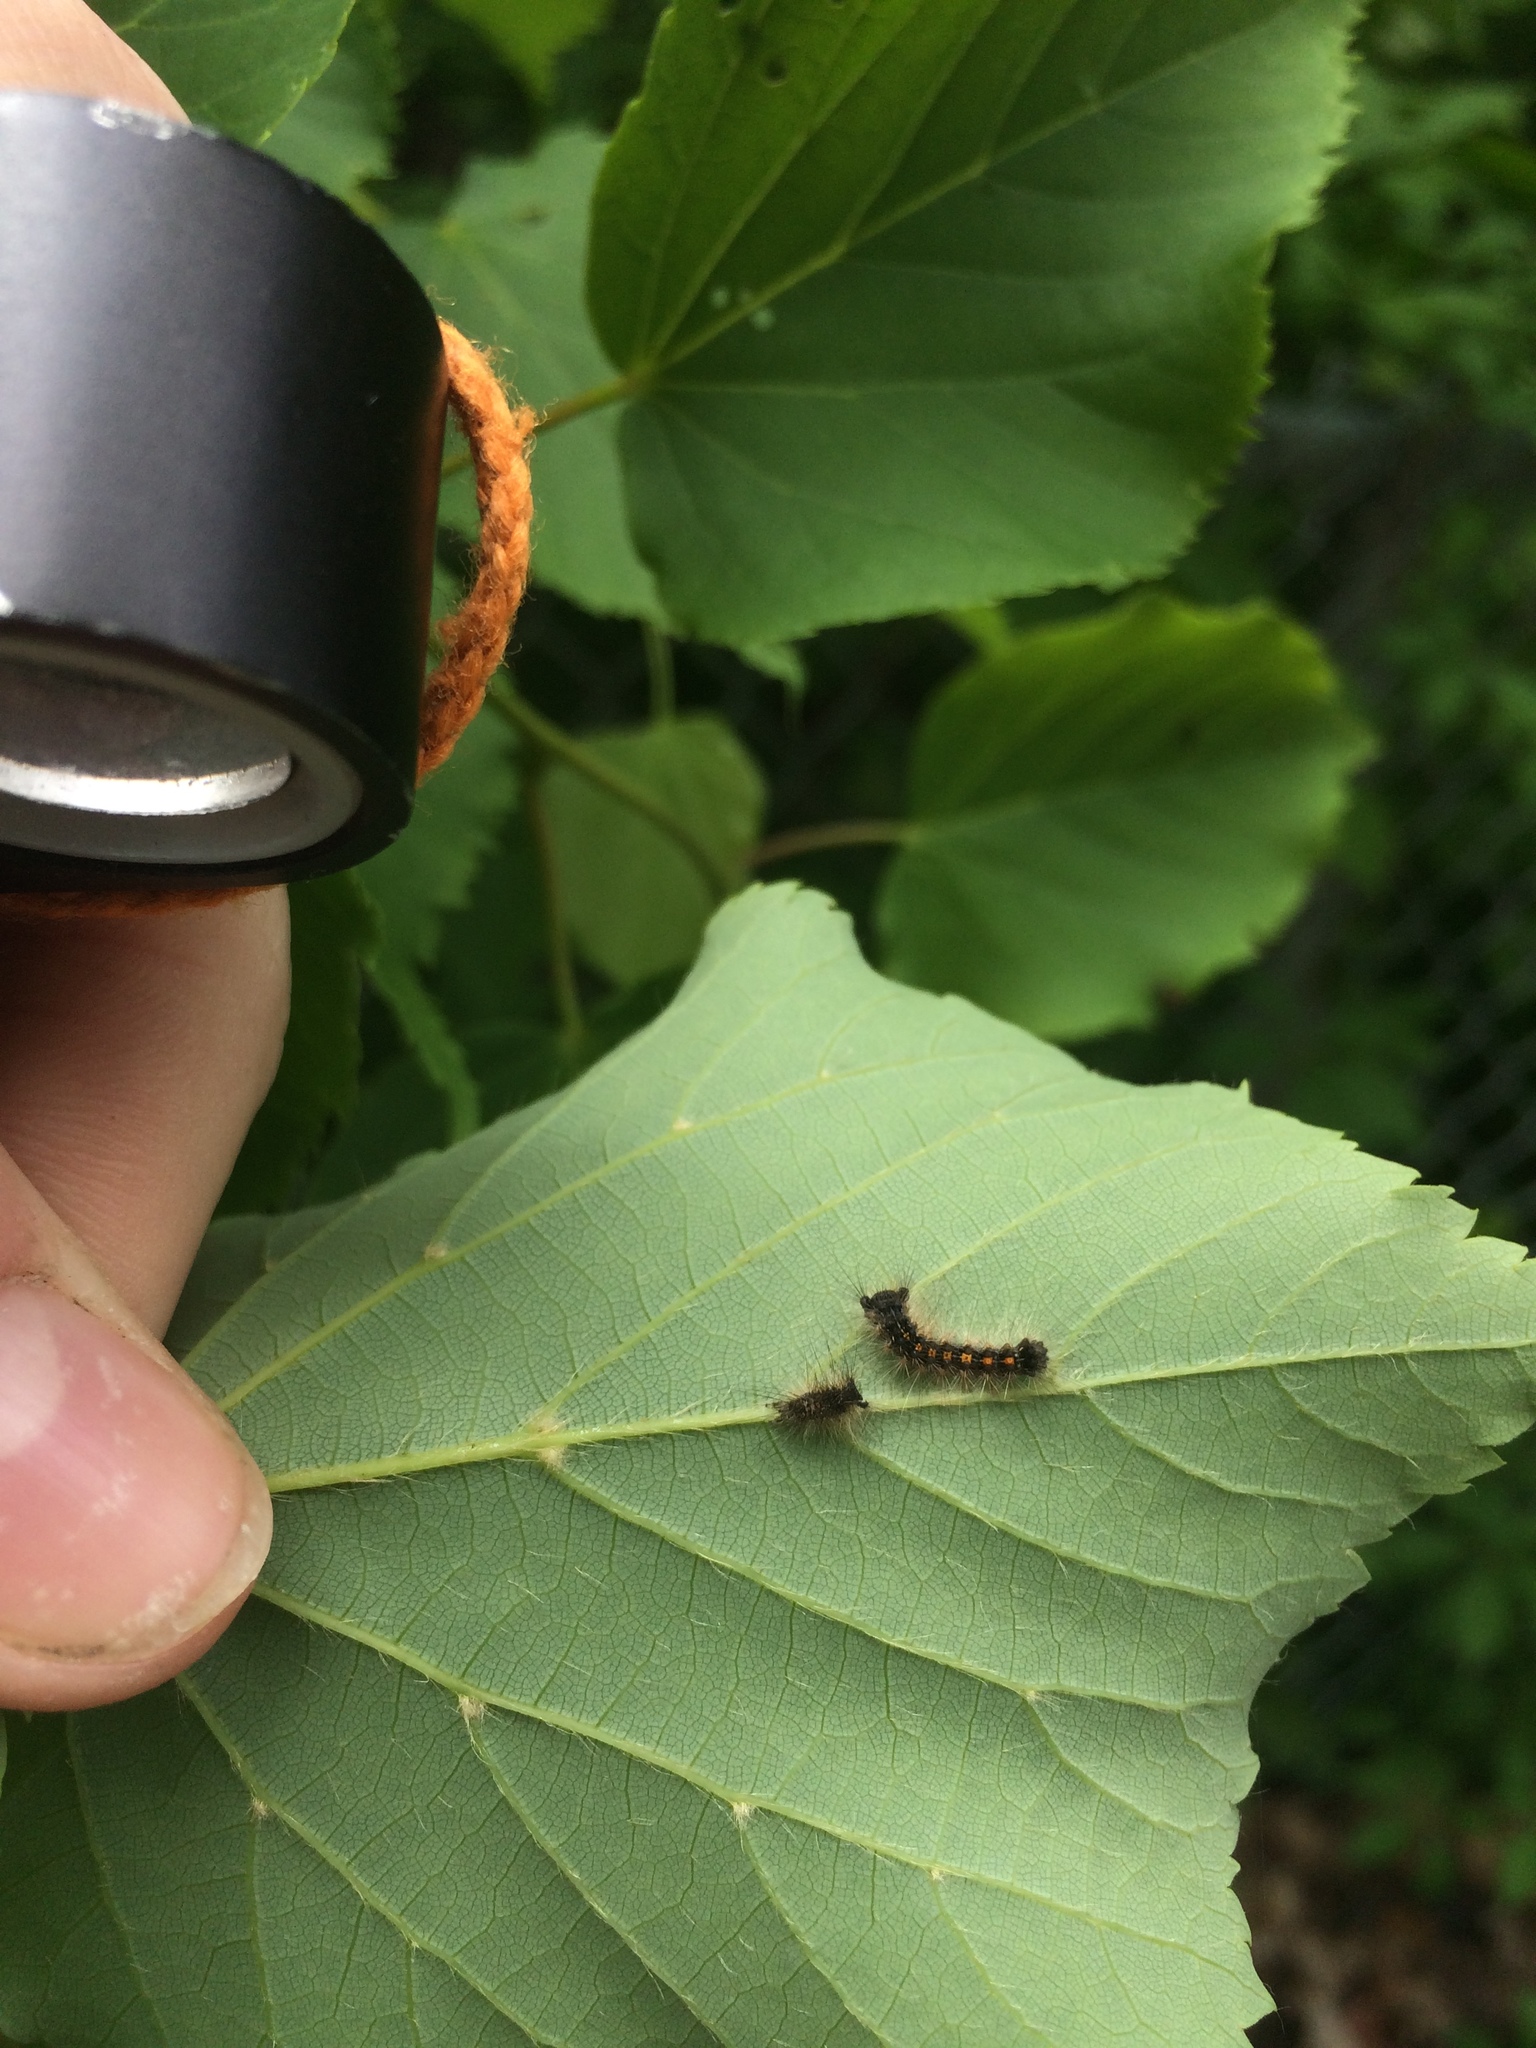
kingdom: Animalia
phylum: Arthropoda
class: Insecta
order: Lepidoptera
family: Erebidae
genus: Lymantria
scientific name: Lymantria dispar
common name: Gypsy moth
